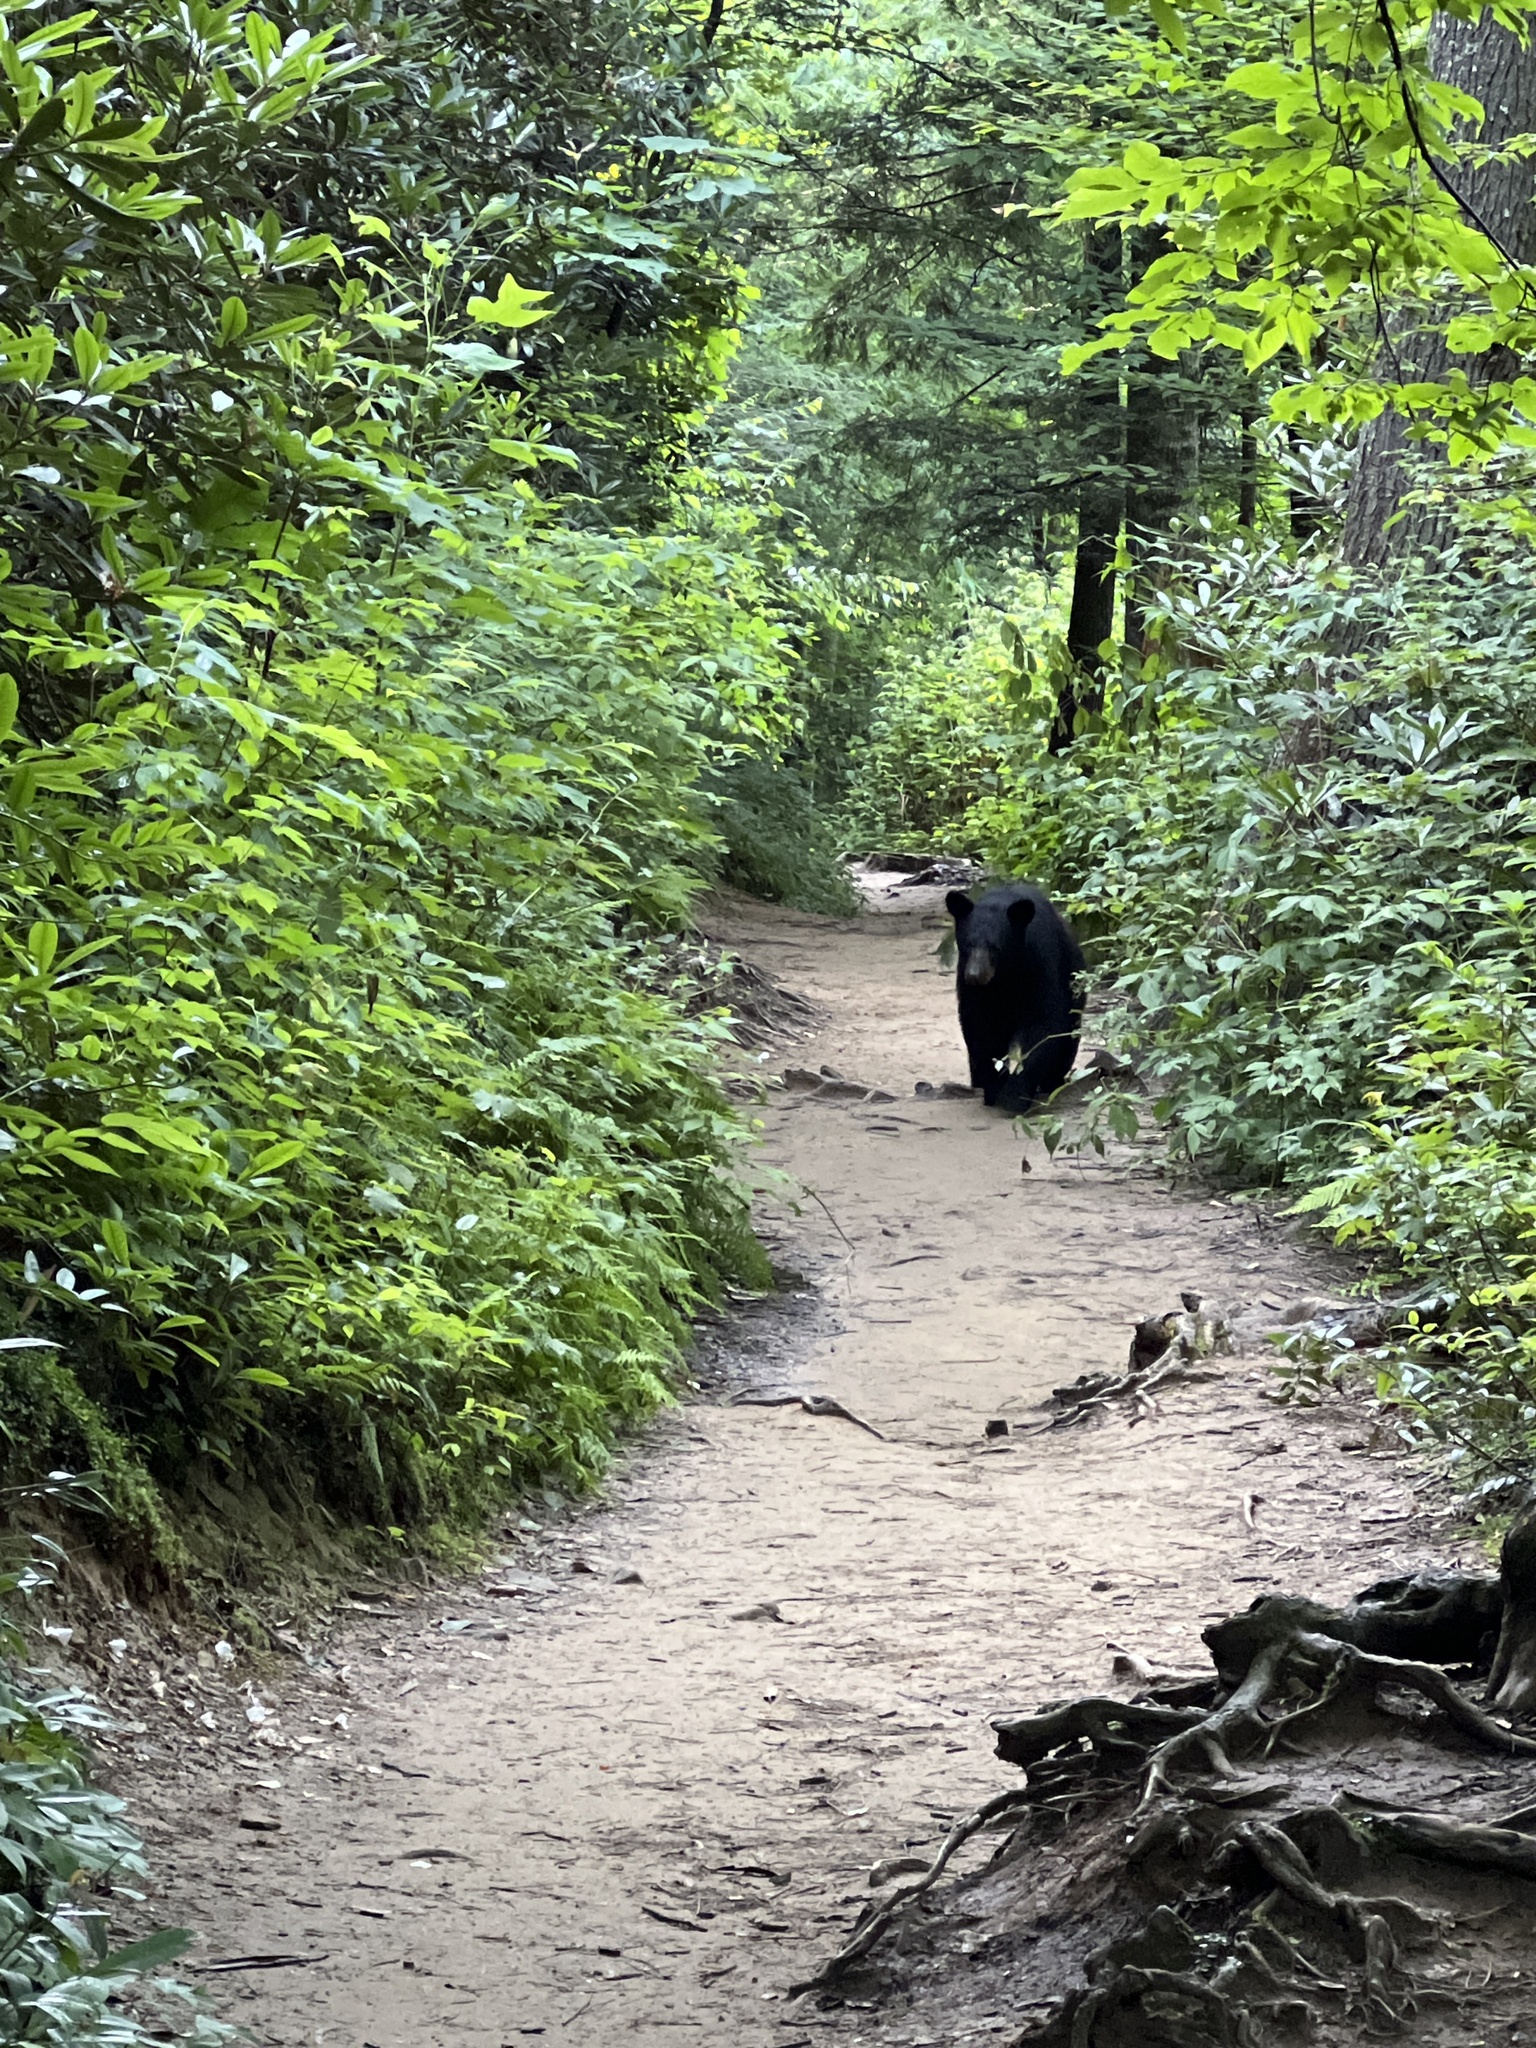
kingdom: Animalia
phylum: Chordata
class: Mammalia
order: Carnivora
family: Ursidae
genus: Ursus
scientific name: Ursus americanus
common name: American black bear
